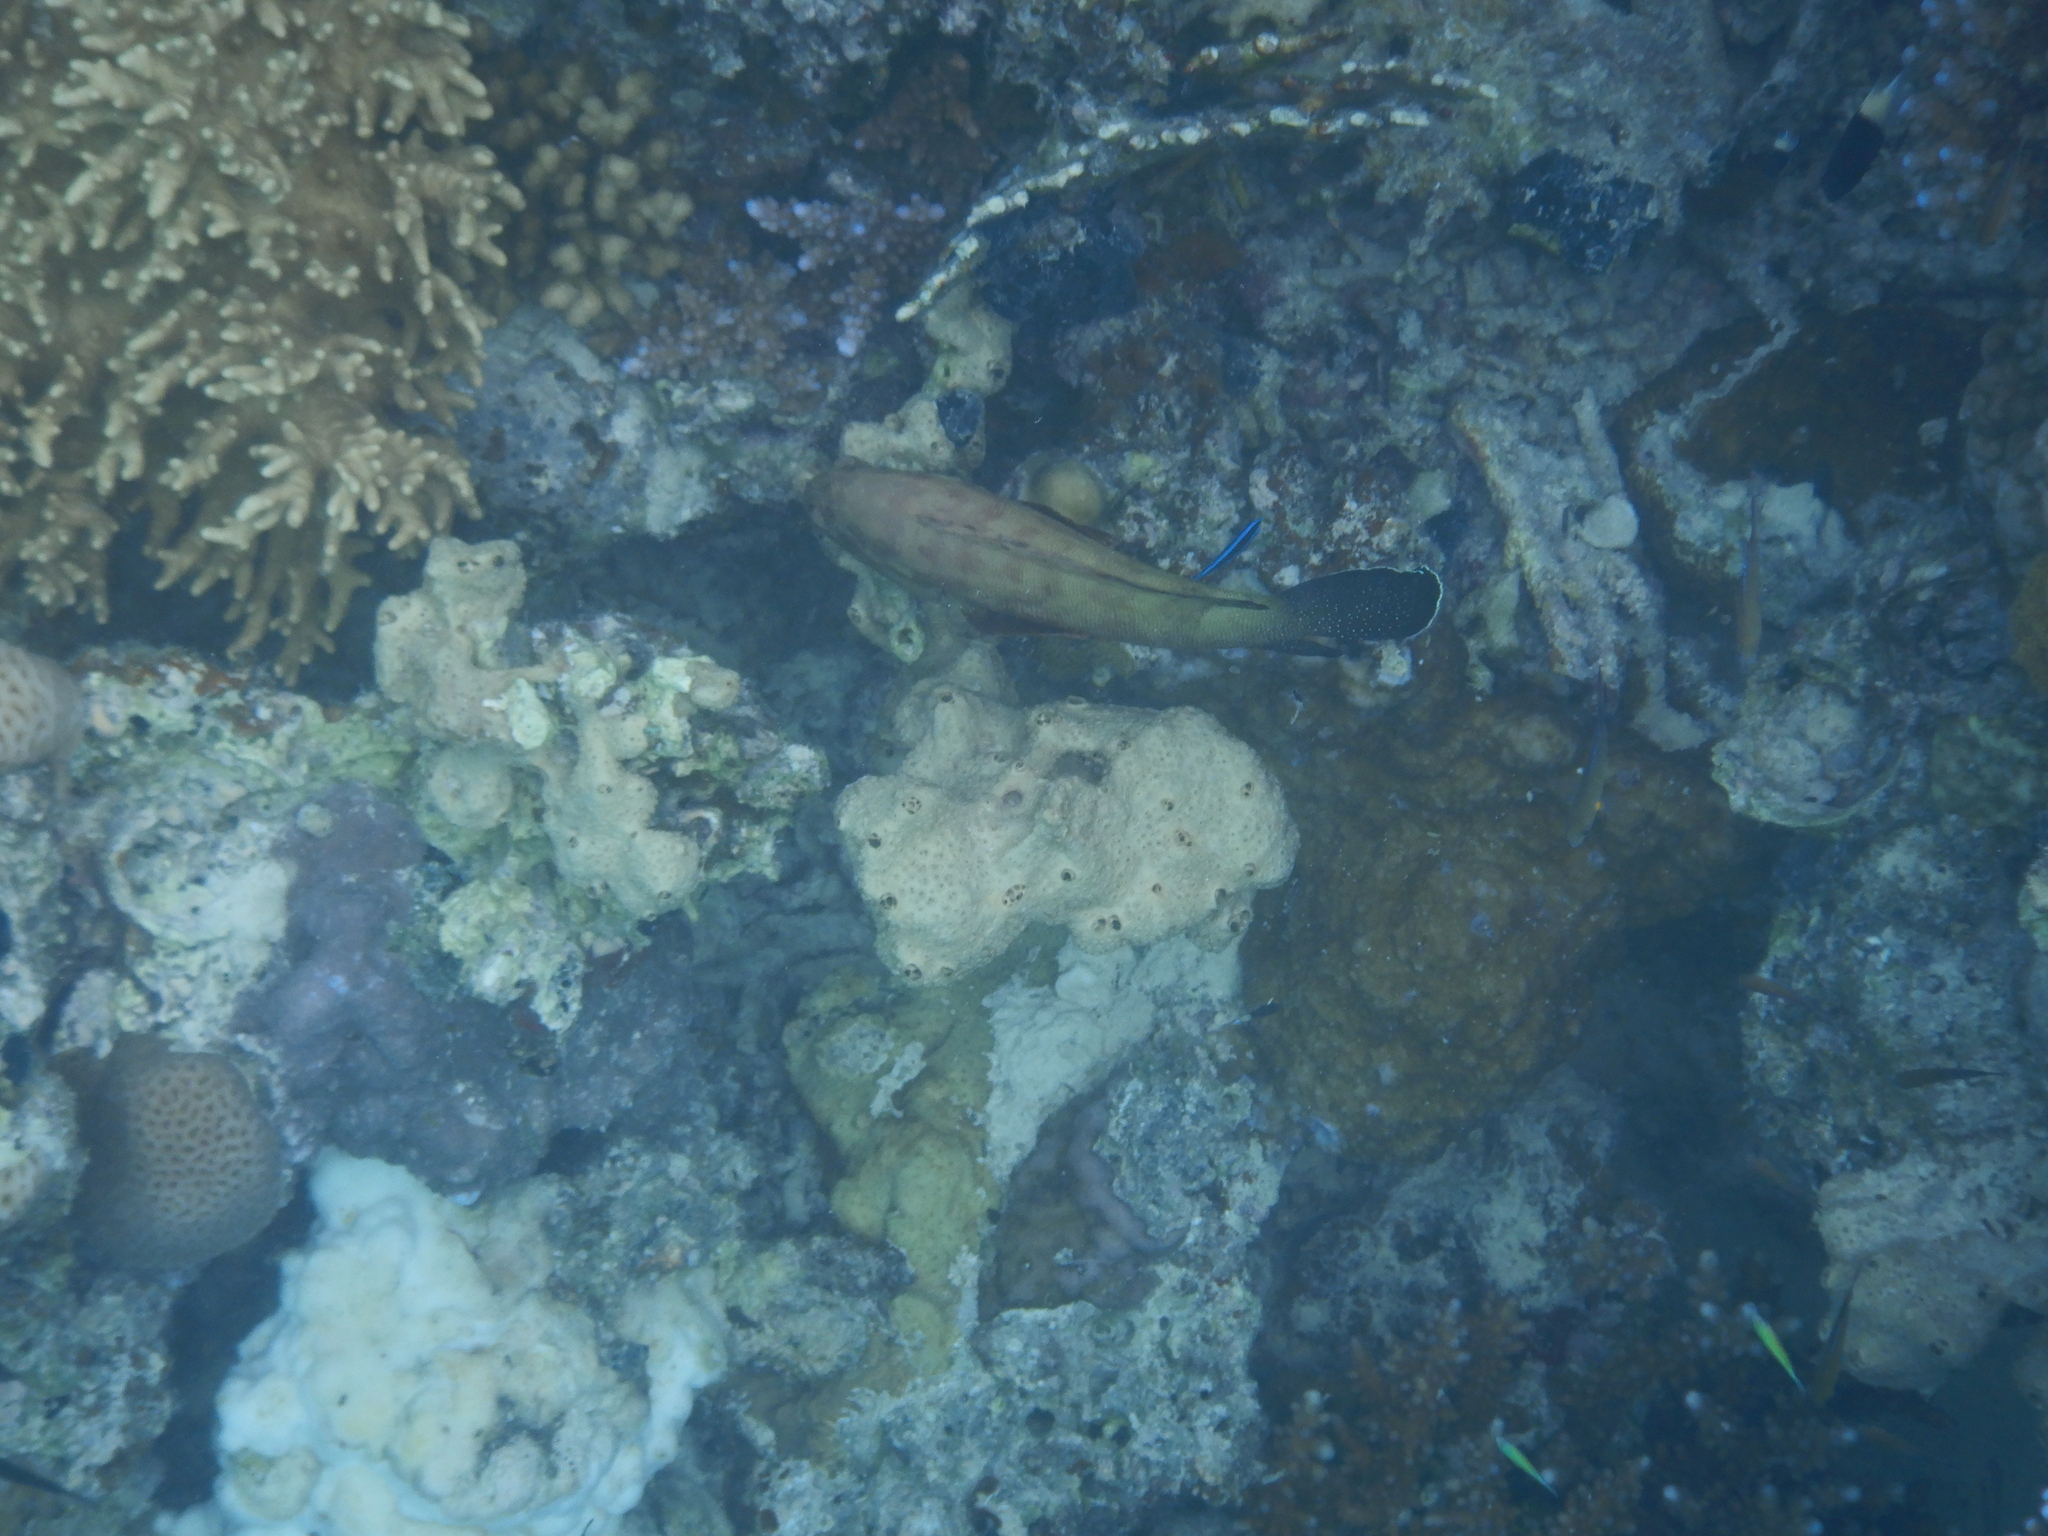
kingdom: Animalia
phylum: Chordata
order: Perciformes
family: Serranidae
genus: Cephalopholis
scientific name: Cephalopholis hemistiktos
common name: Halfspotted hind
